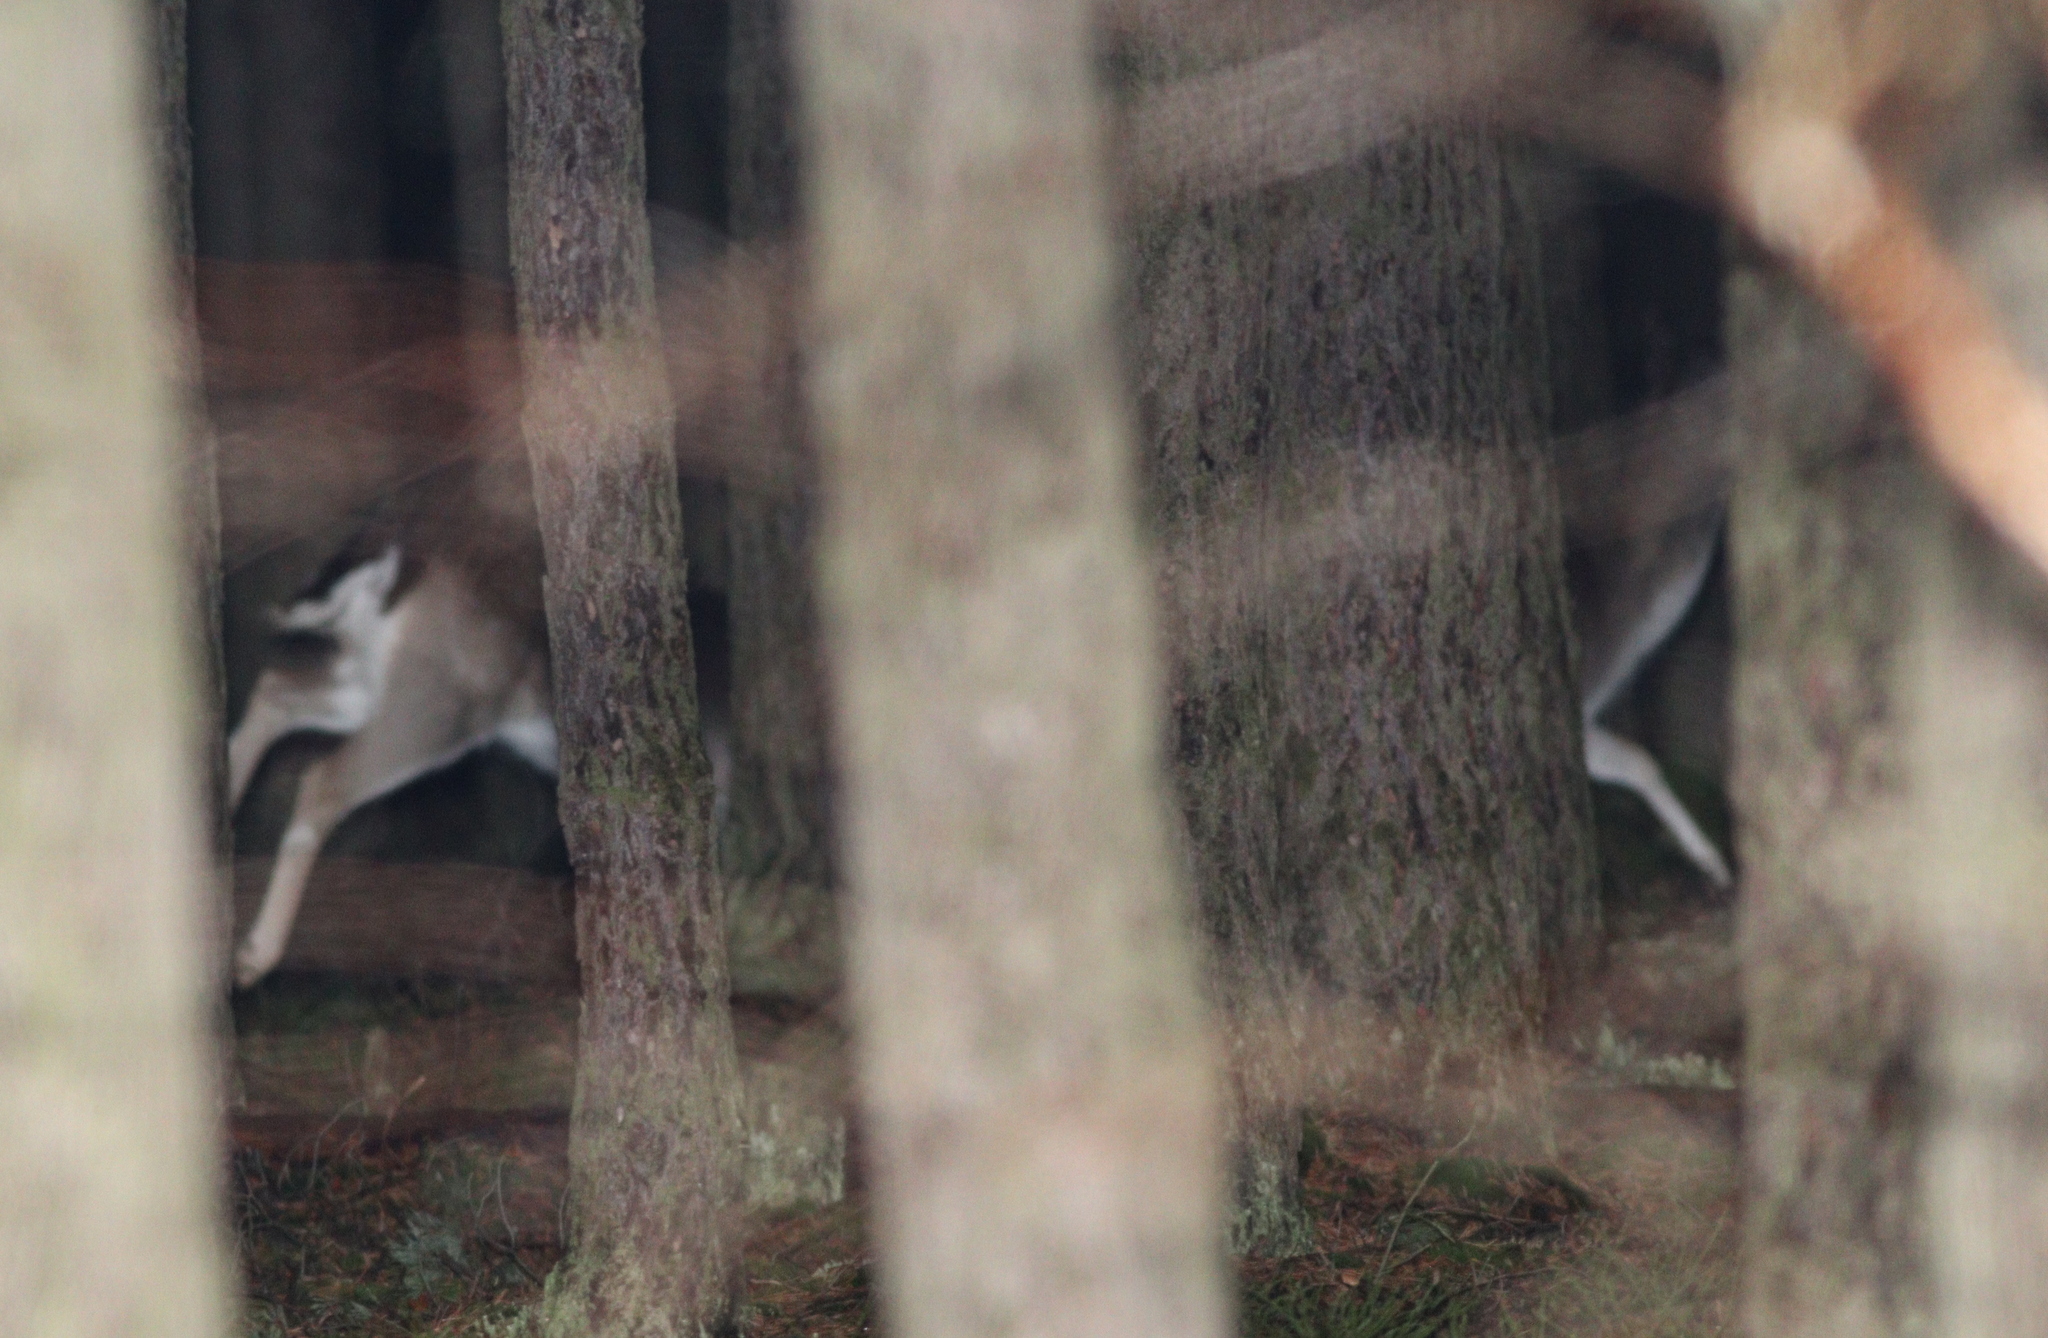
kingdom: Animalia
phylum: Chordata
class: Mammalia
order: Artiodactyla
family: Cervidae
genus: Dama
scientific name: Dama dama
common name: Fallow deer
